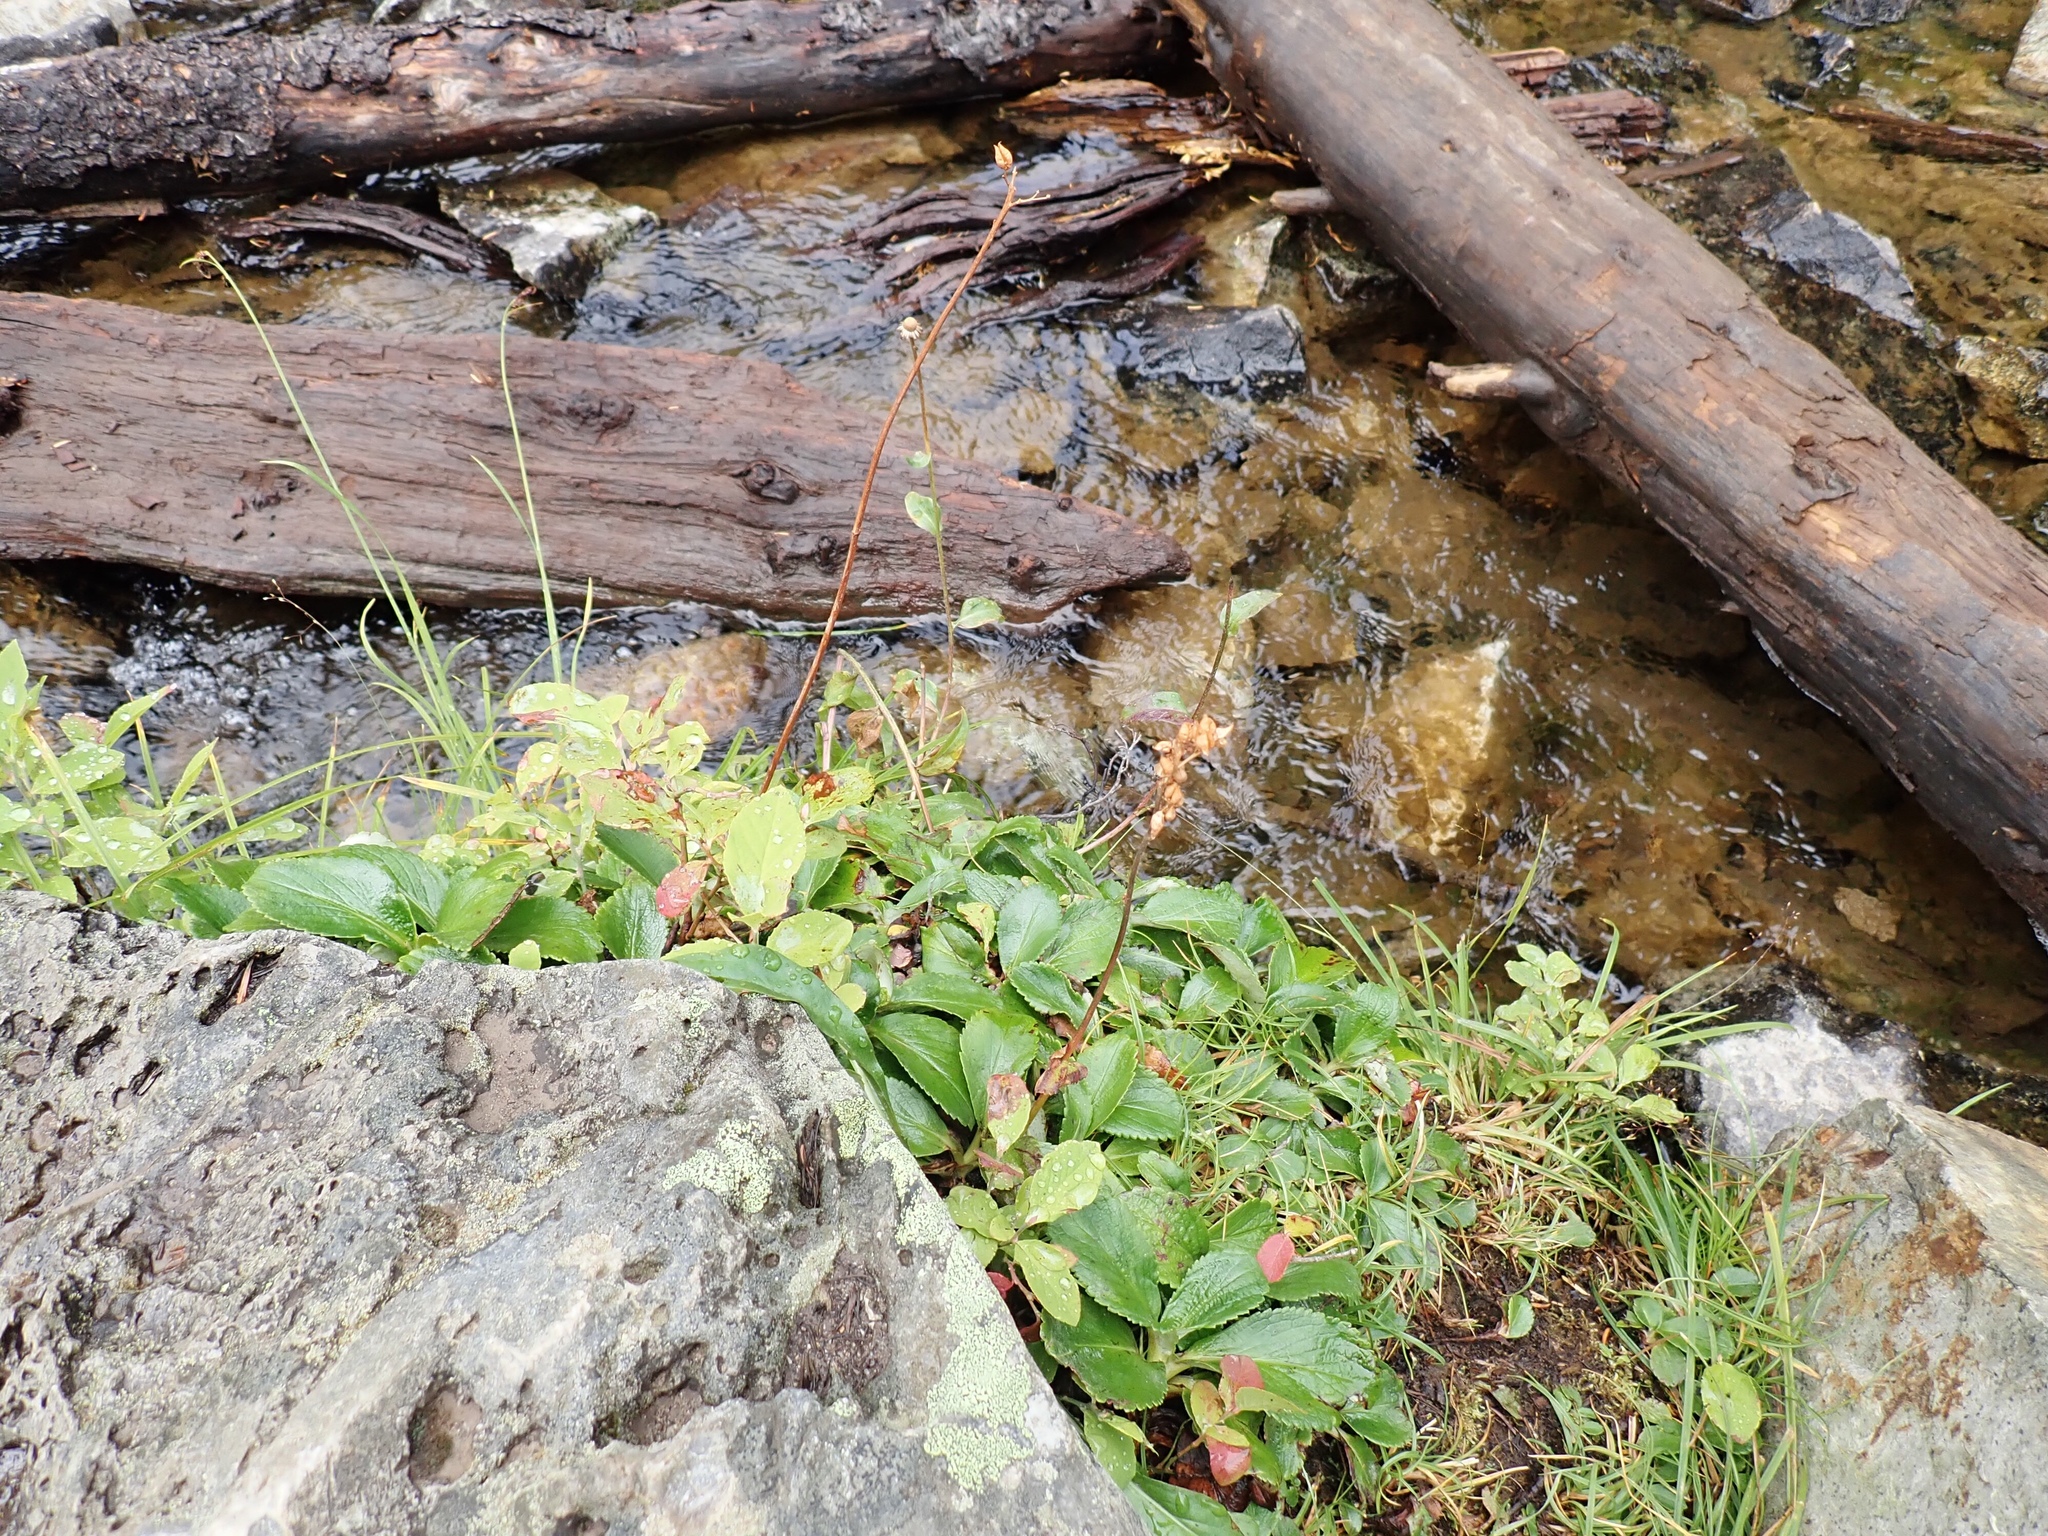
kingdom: Plantae
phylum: Tracheophyta
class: Magnoliopsida
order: Saxifragales
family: Saxifragaceae
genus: Leptarrhena
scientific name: Leptarrhena pyrolifolia
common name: Leatherleaf-saxifrage
